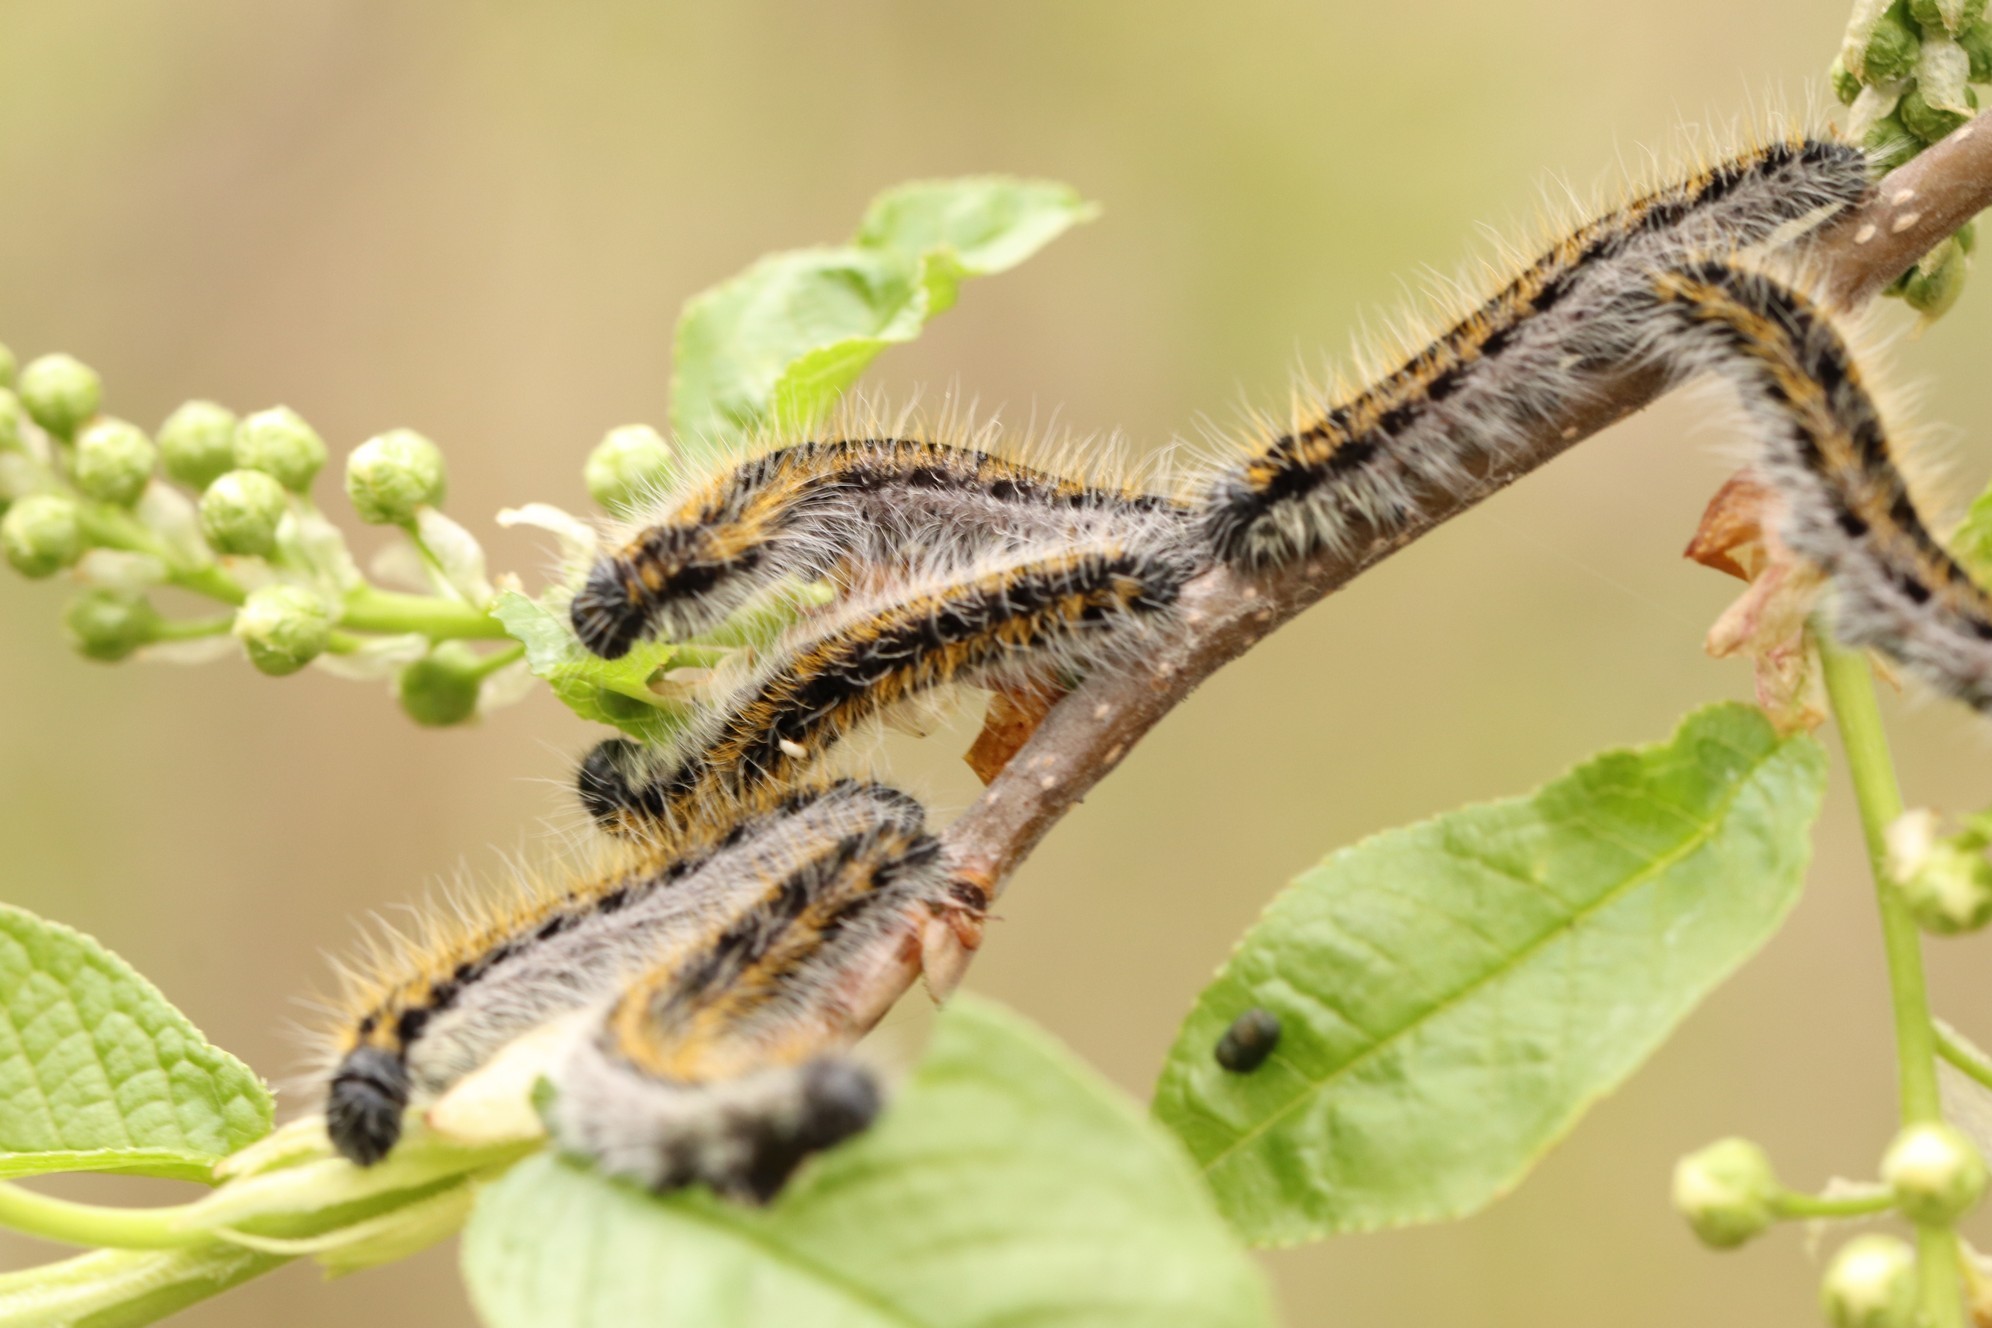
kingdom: Animalia
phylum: Arthropoda
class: Insecta
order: Lepidoptera
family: Pieridae
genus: Aporia
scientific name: Aporia crataegi
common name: Black-veined white
